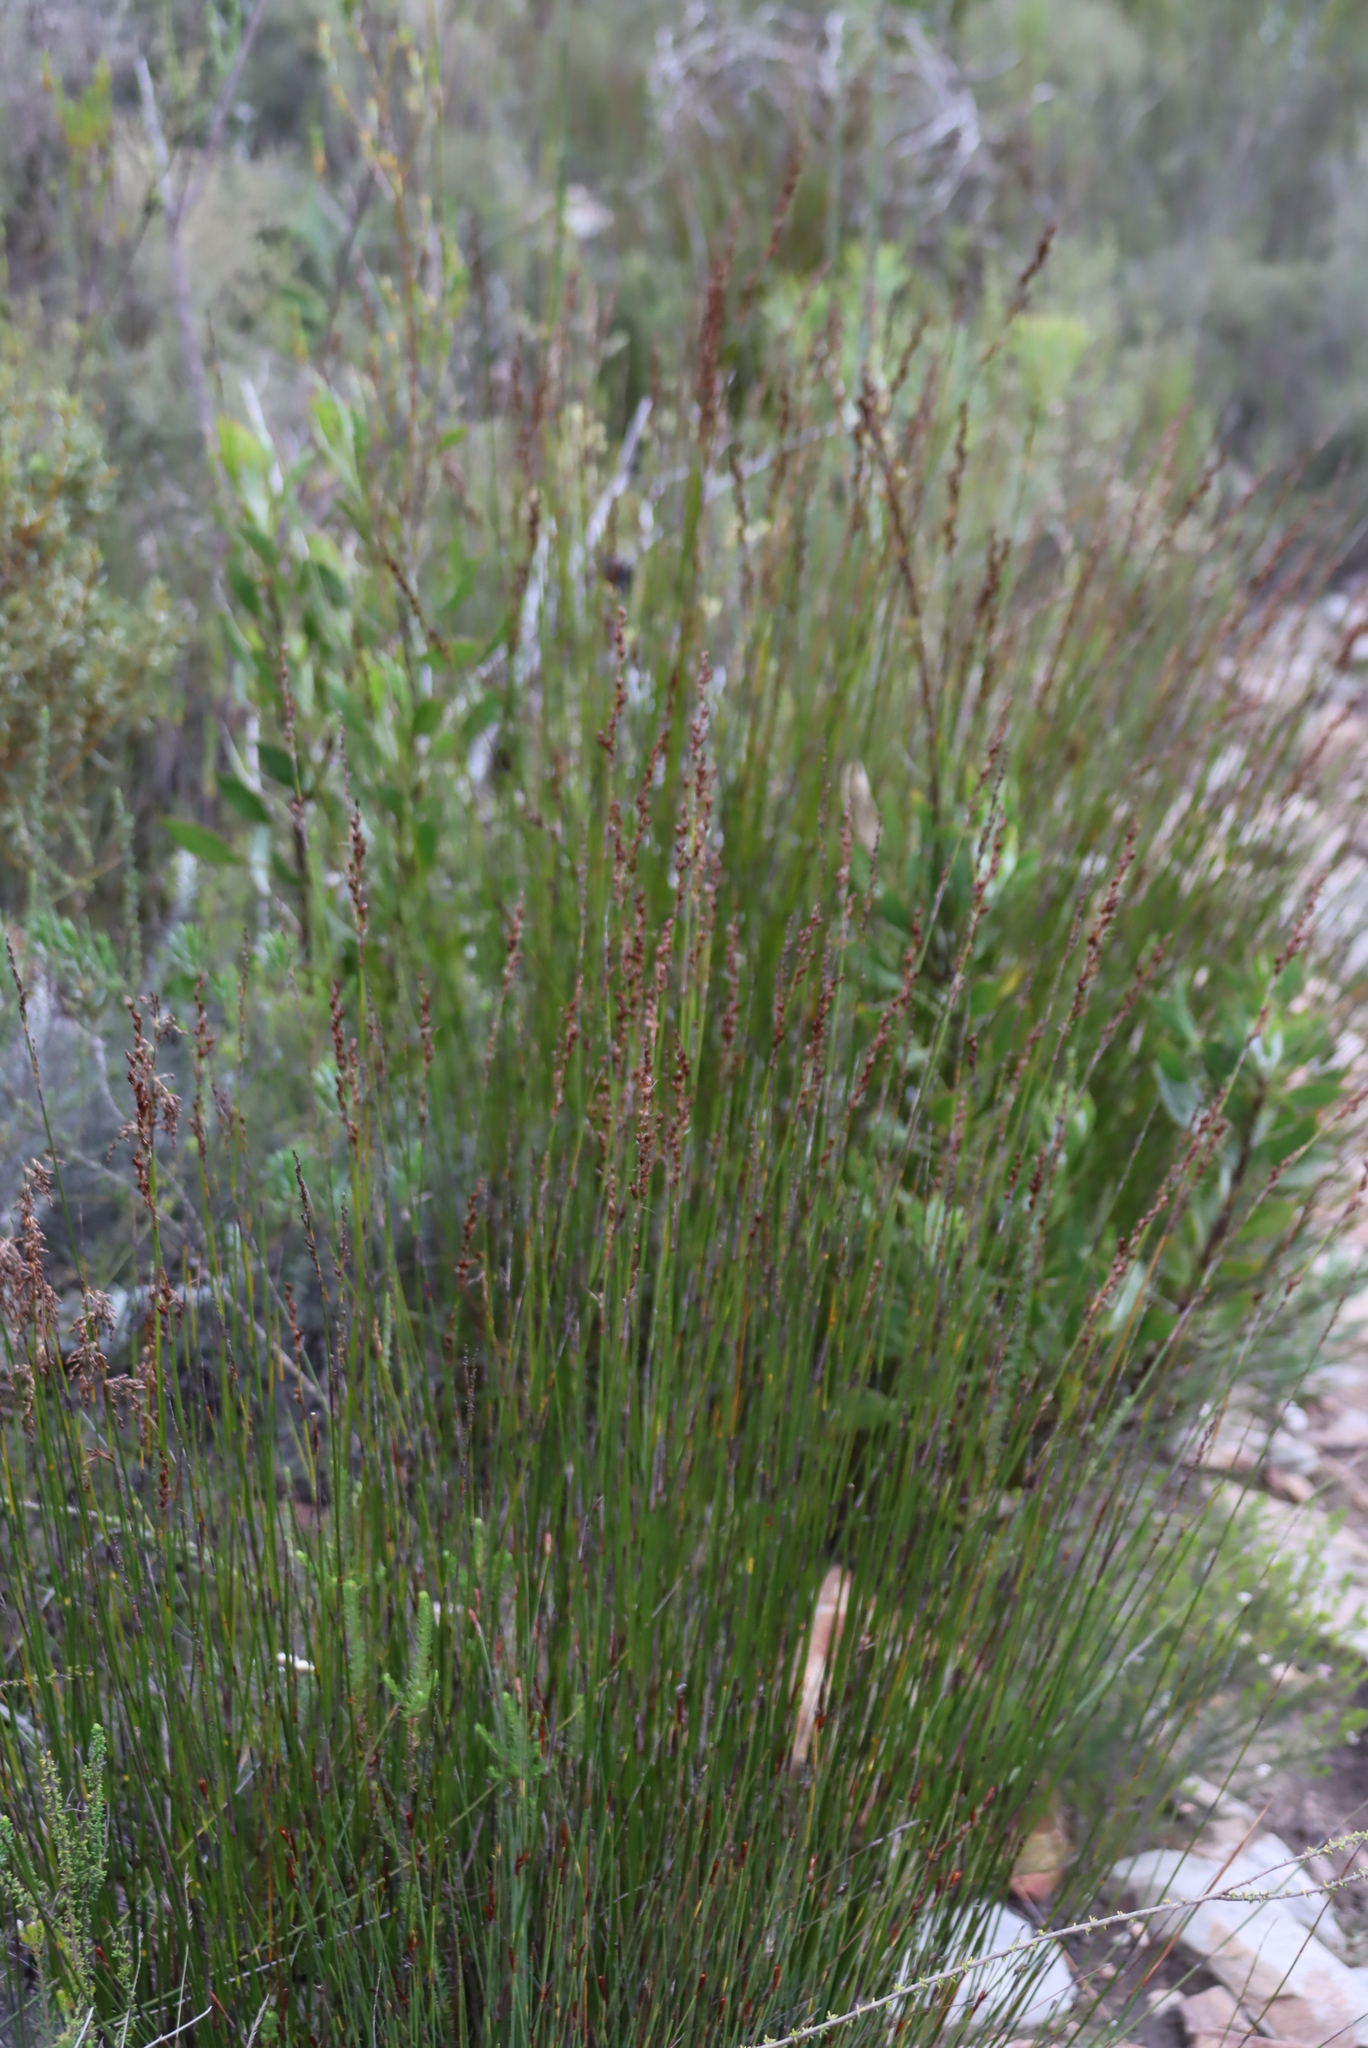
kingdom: Plantae
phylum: Tracheophyta
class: Liliopsida
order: Poales
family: Restionaceae
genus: Rhodocoma
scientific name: Rhodocoma fruticosa
